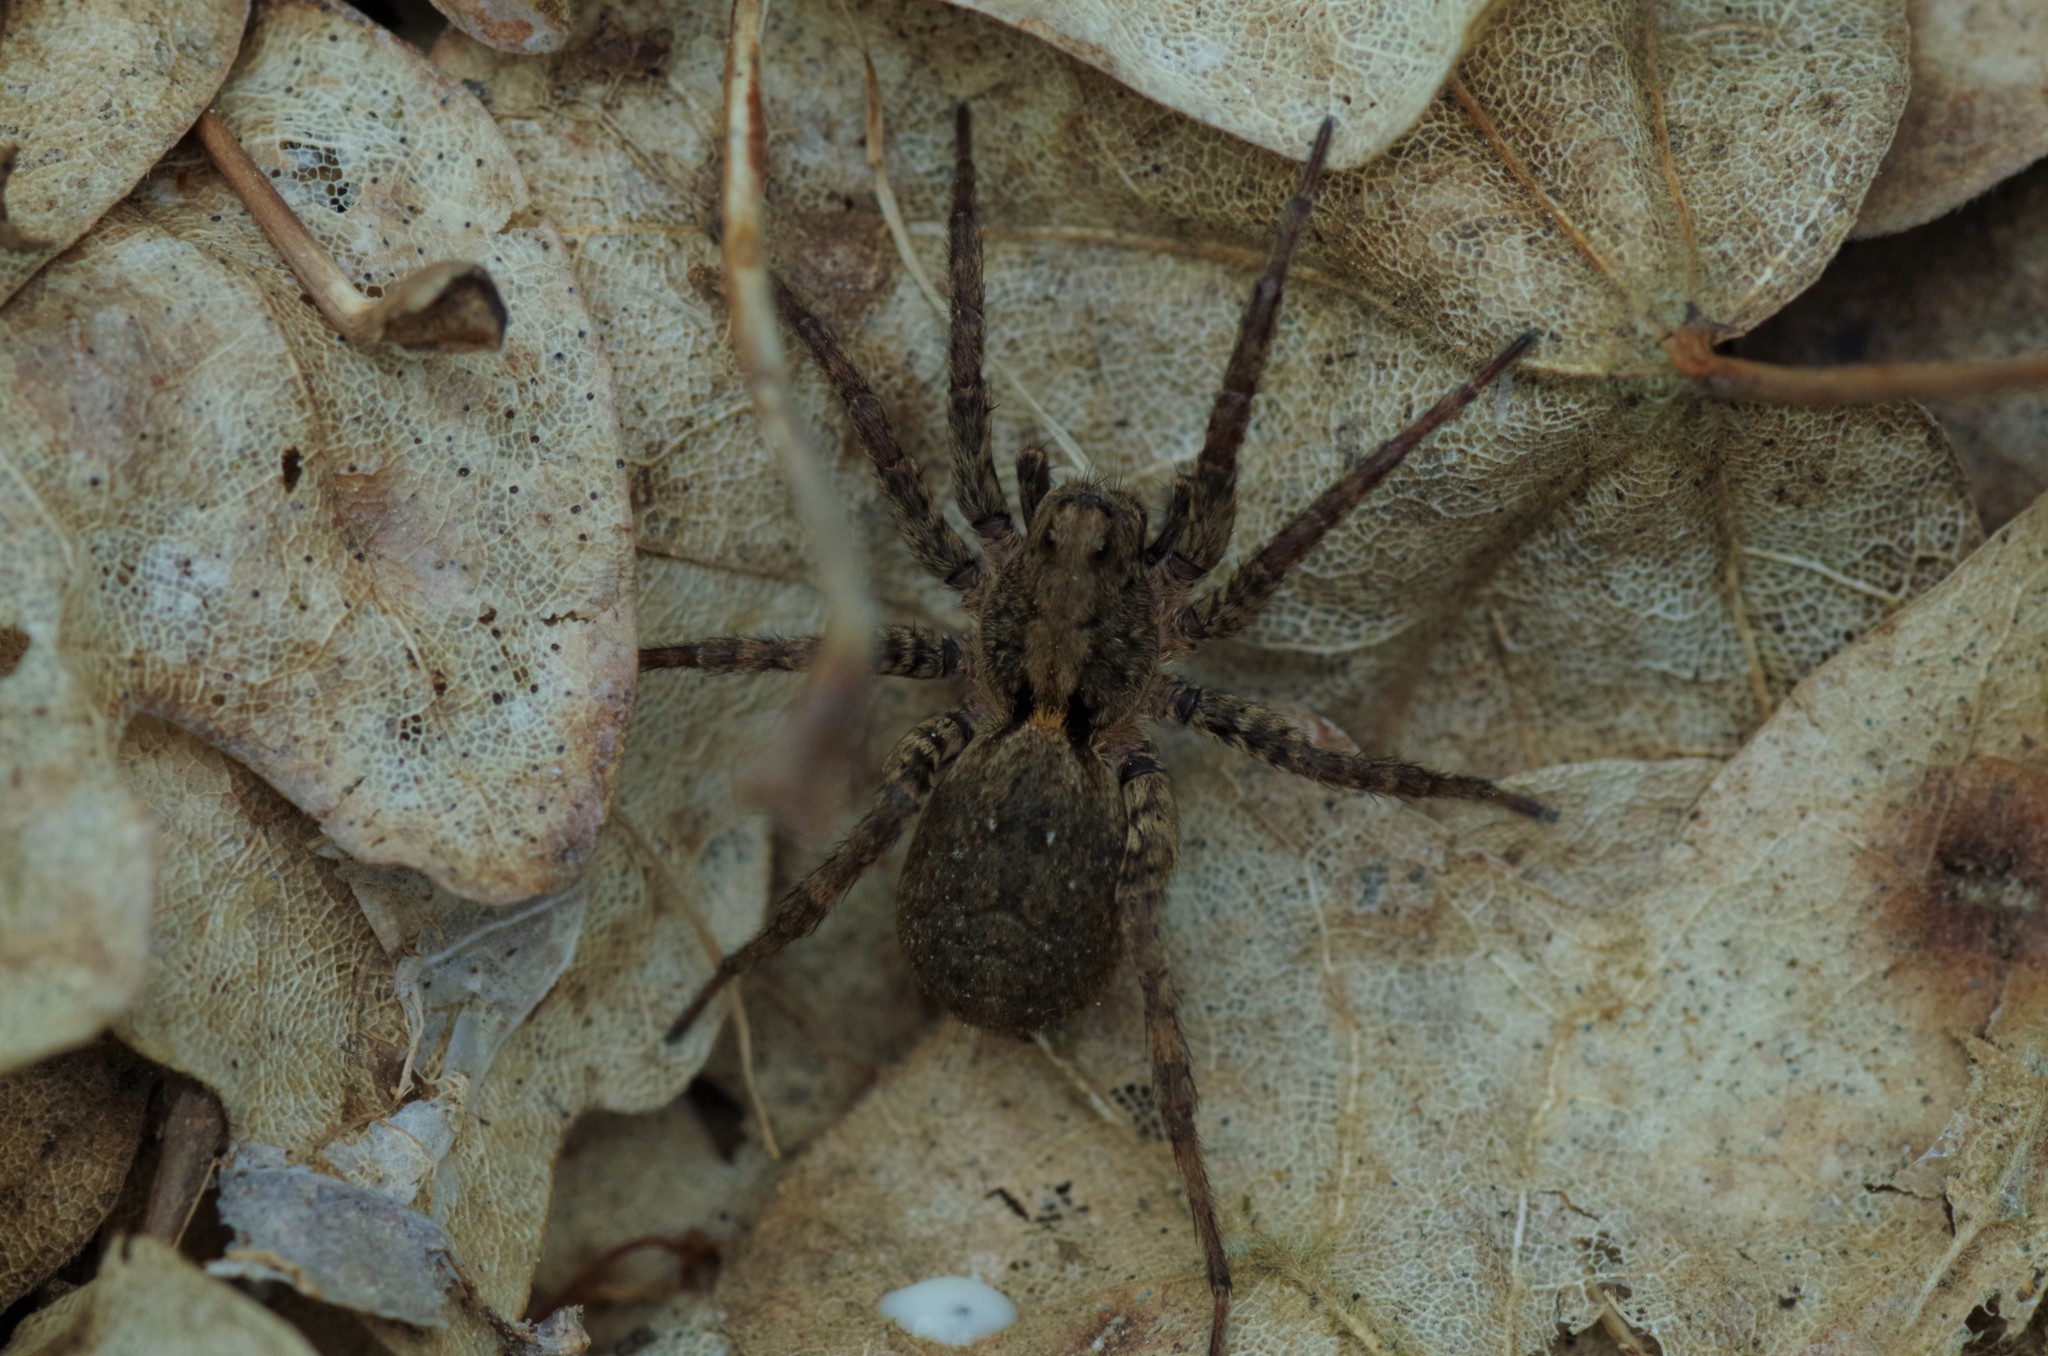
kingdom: Animalia
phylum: Arthropoda
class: Arachnida
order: Araneae
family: Lycosidae
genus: Alopecosa
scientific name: Alopecosa
